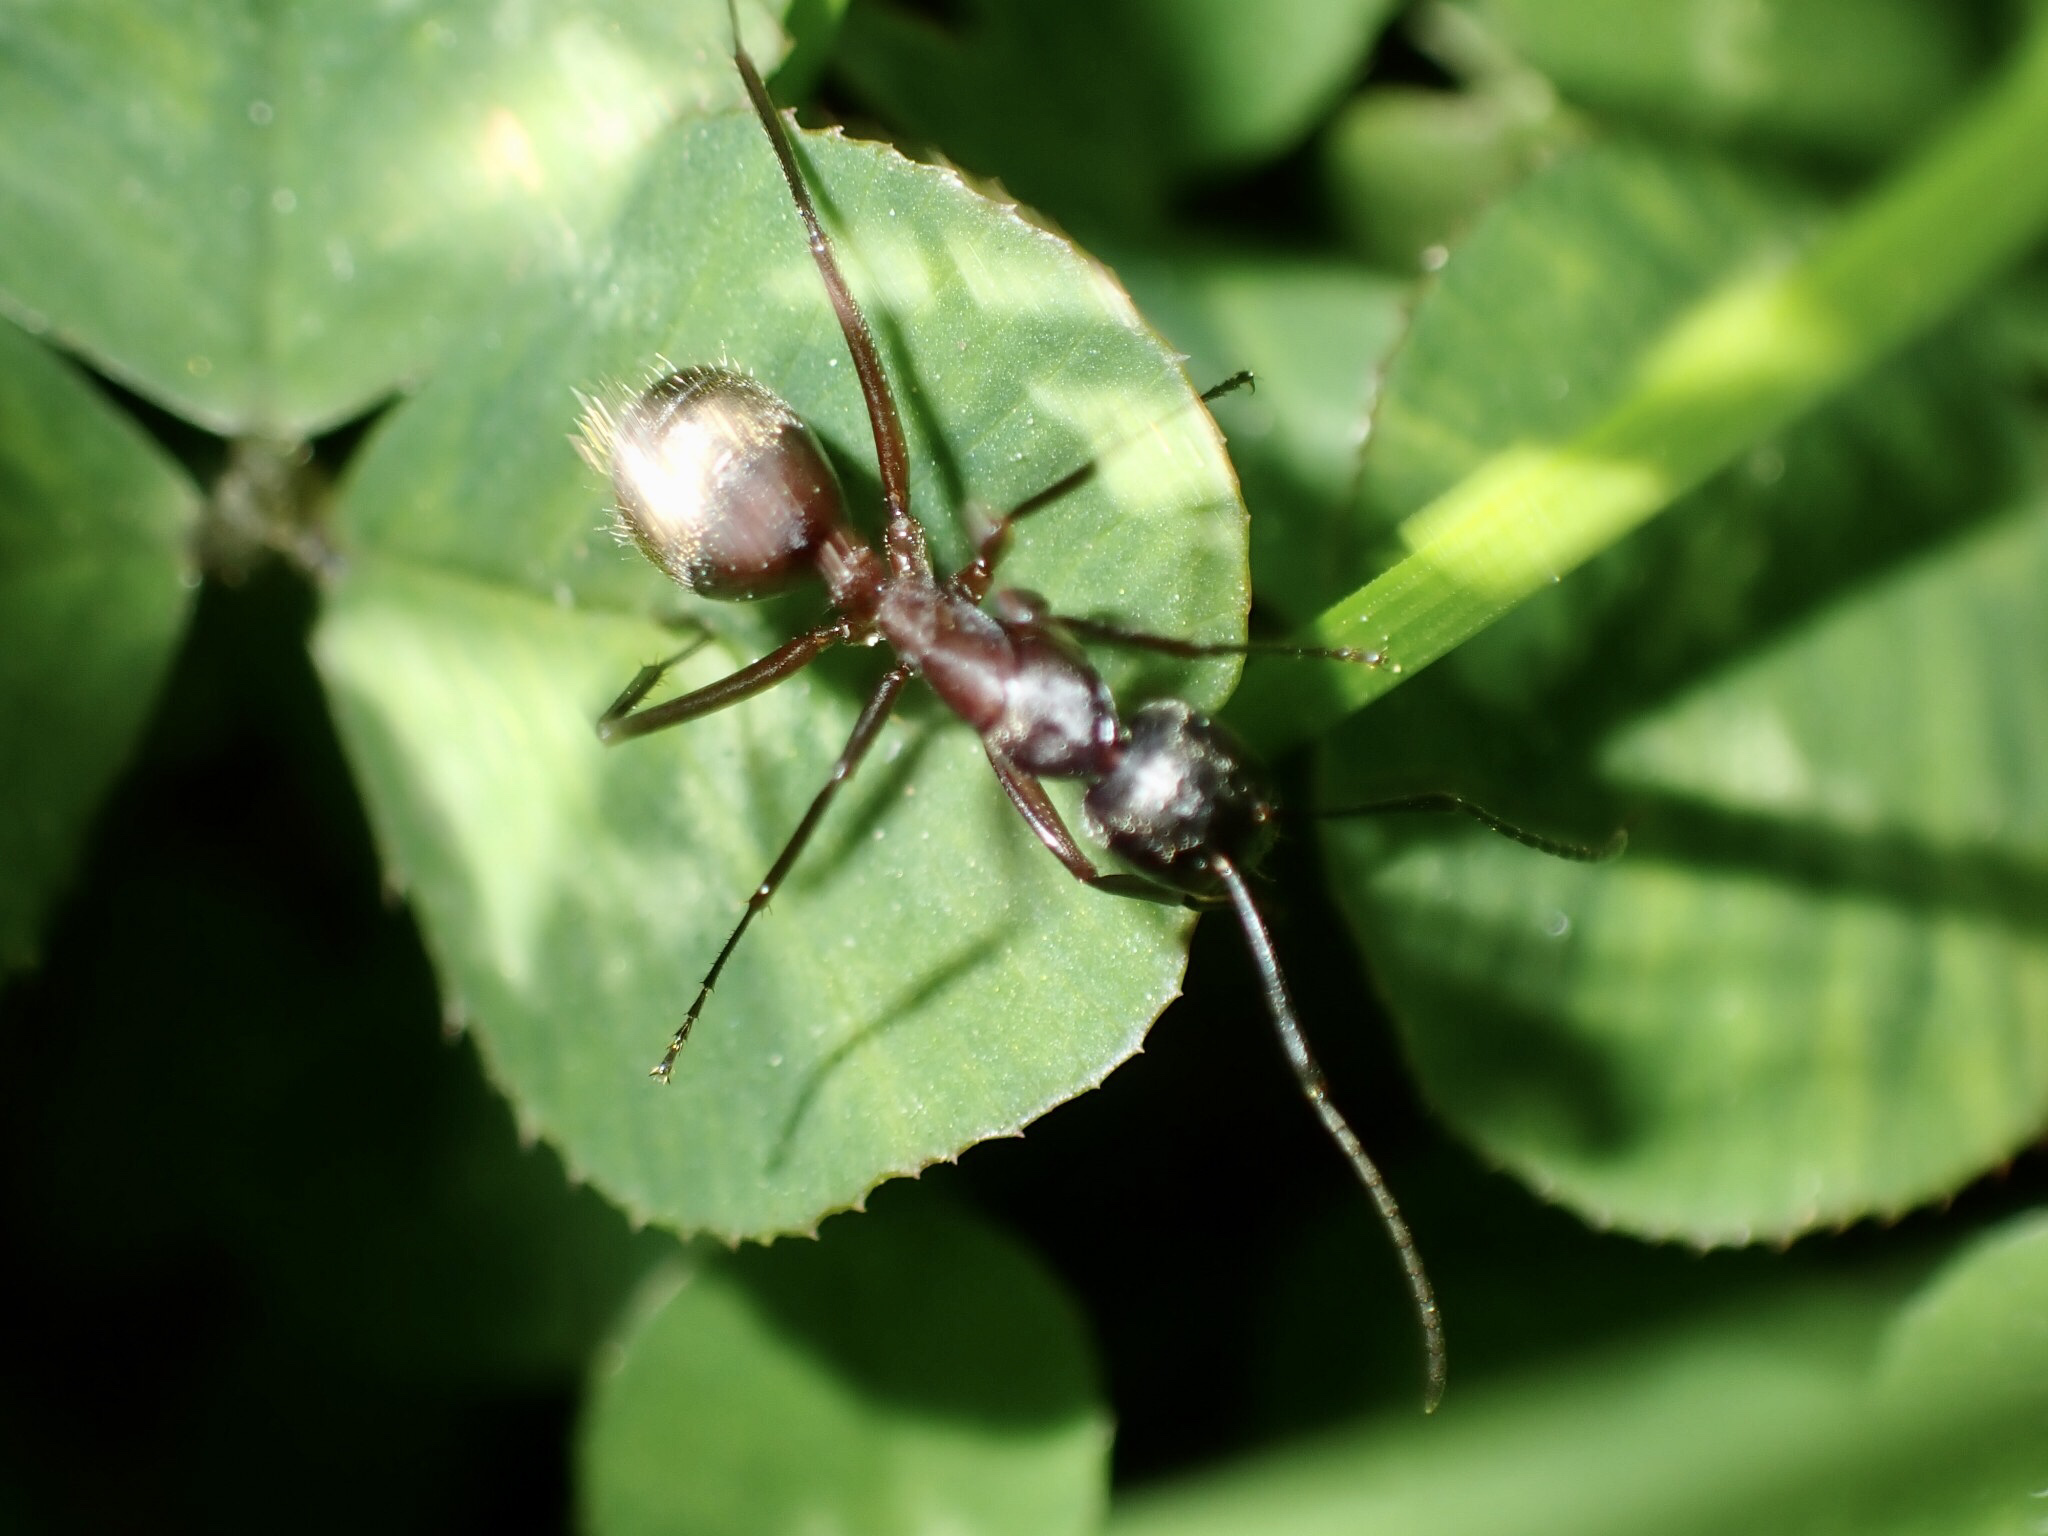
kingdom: Animalia
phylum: Arthropoda
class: Insecta
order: Hymenoptera
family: Formicidae
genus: Camponotus
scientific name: Camponotus chromaiodes
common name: Red carpenter ant
